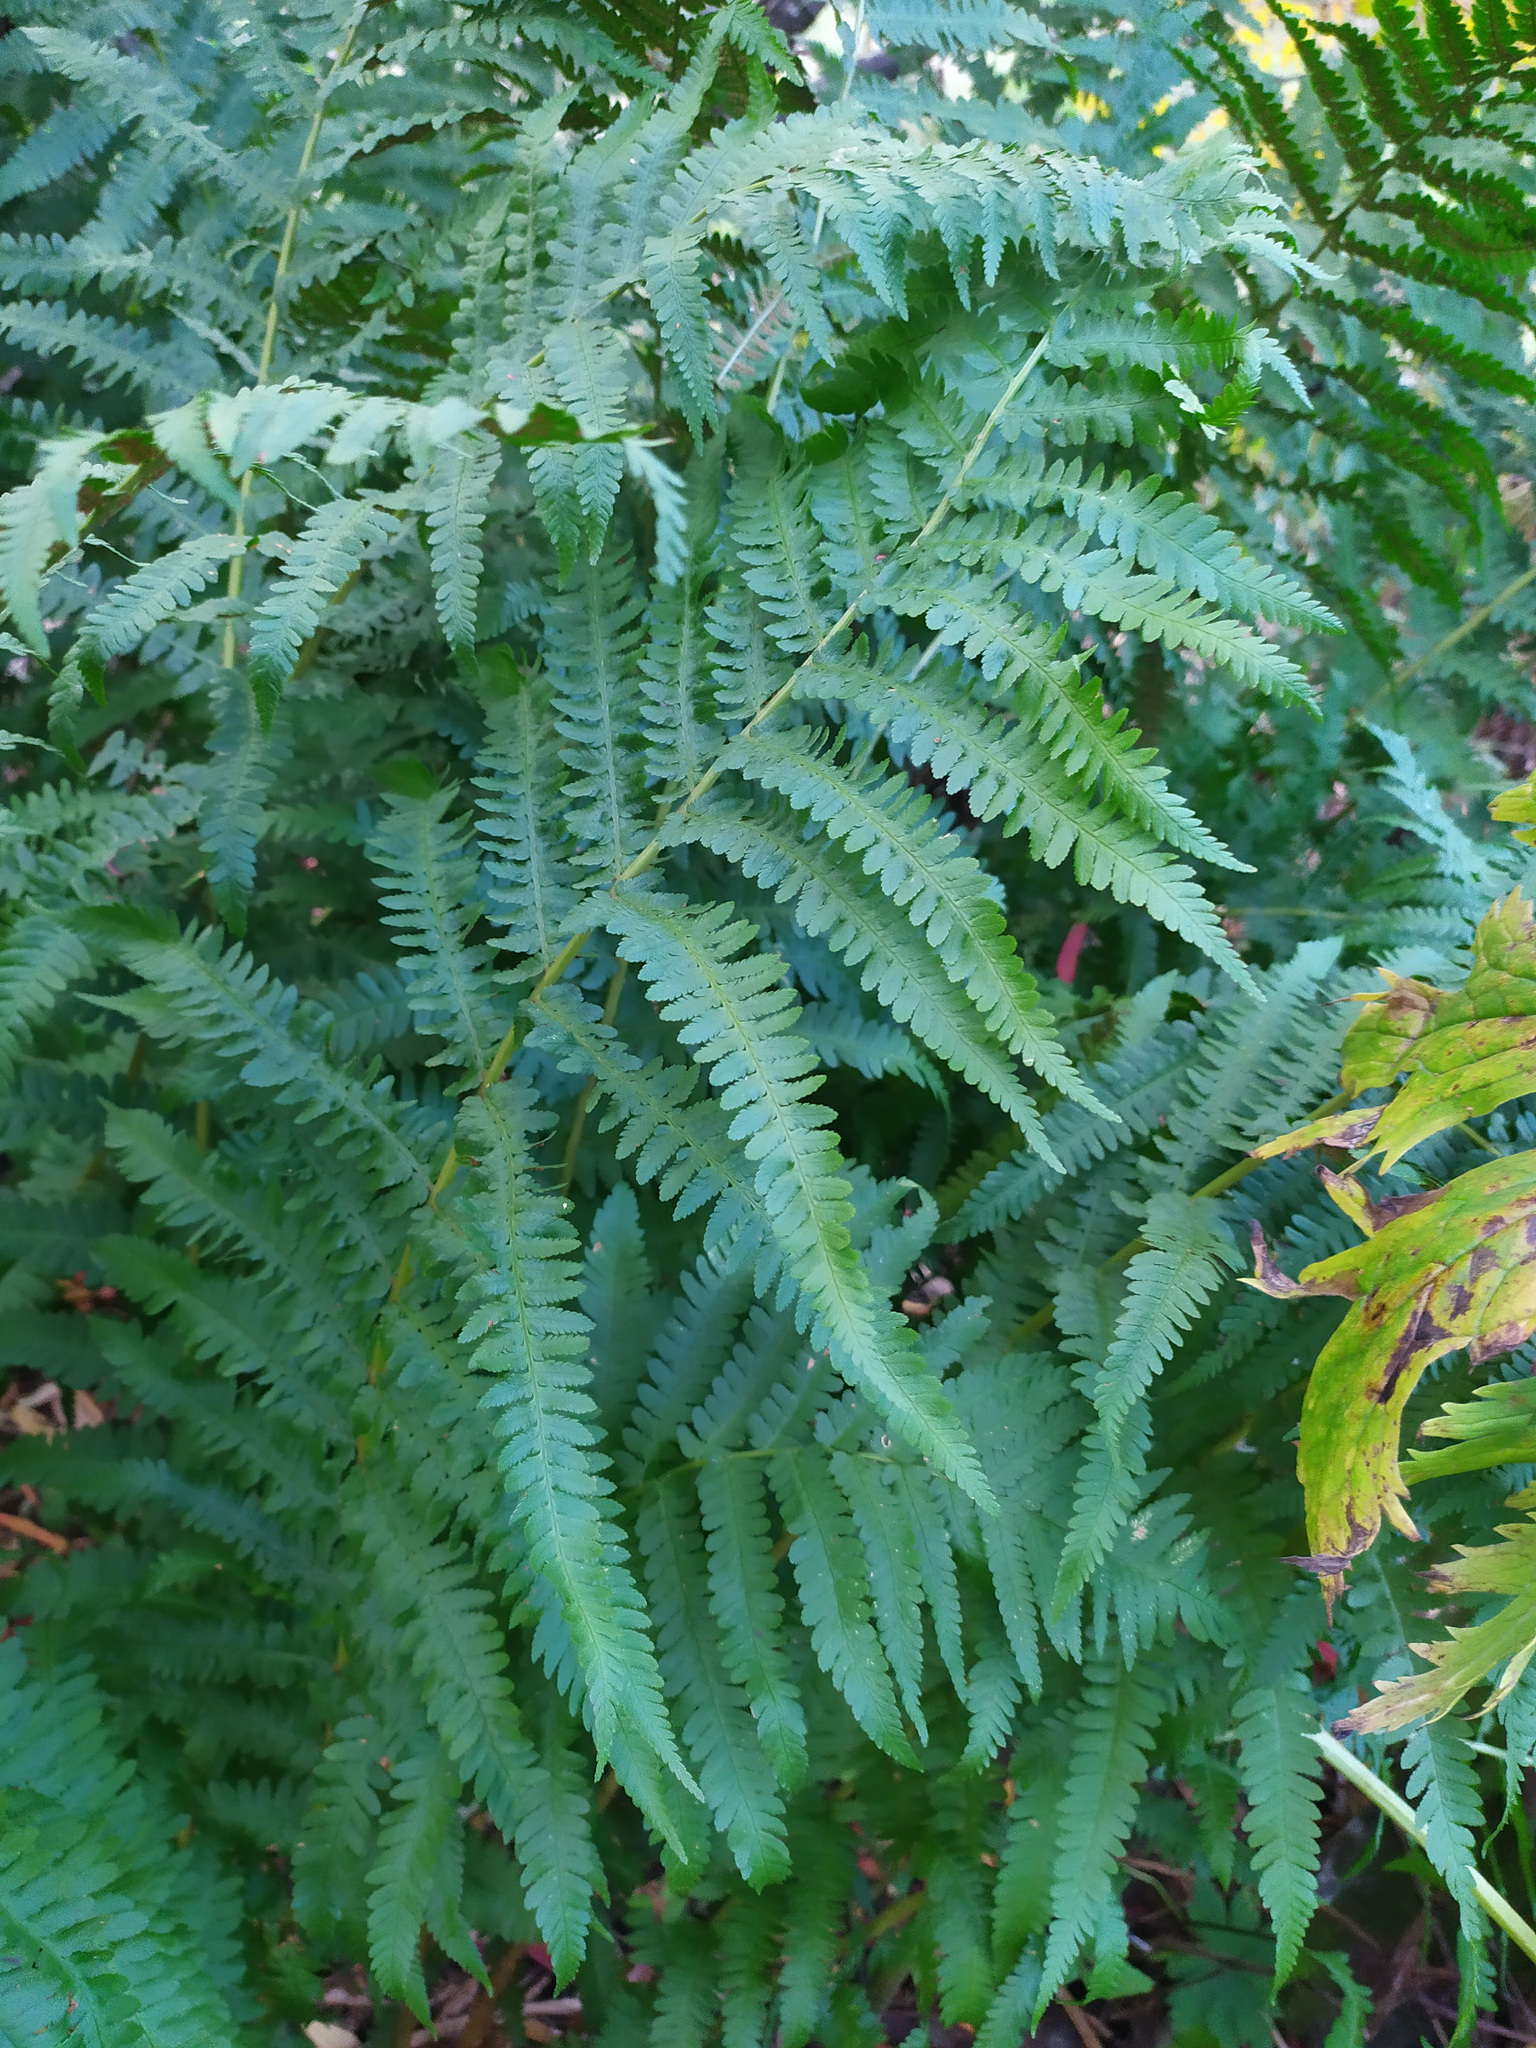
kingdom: Plantae
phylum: Tracheophyta
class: Polypodiopsida
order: Polypodiales
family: Dryopteridaceae
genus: Dryopteris
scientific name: Dryopteris filix-mas
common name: Male fern
